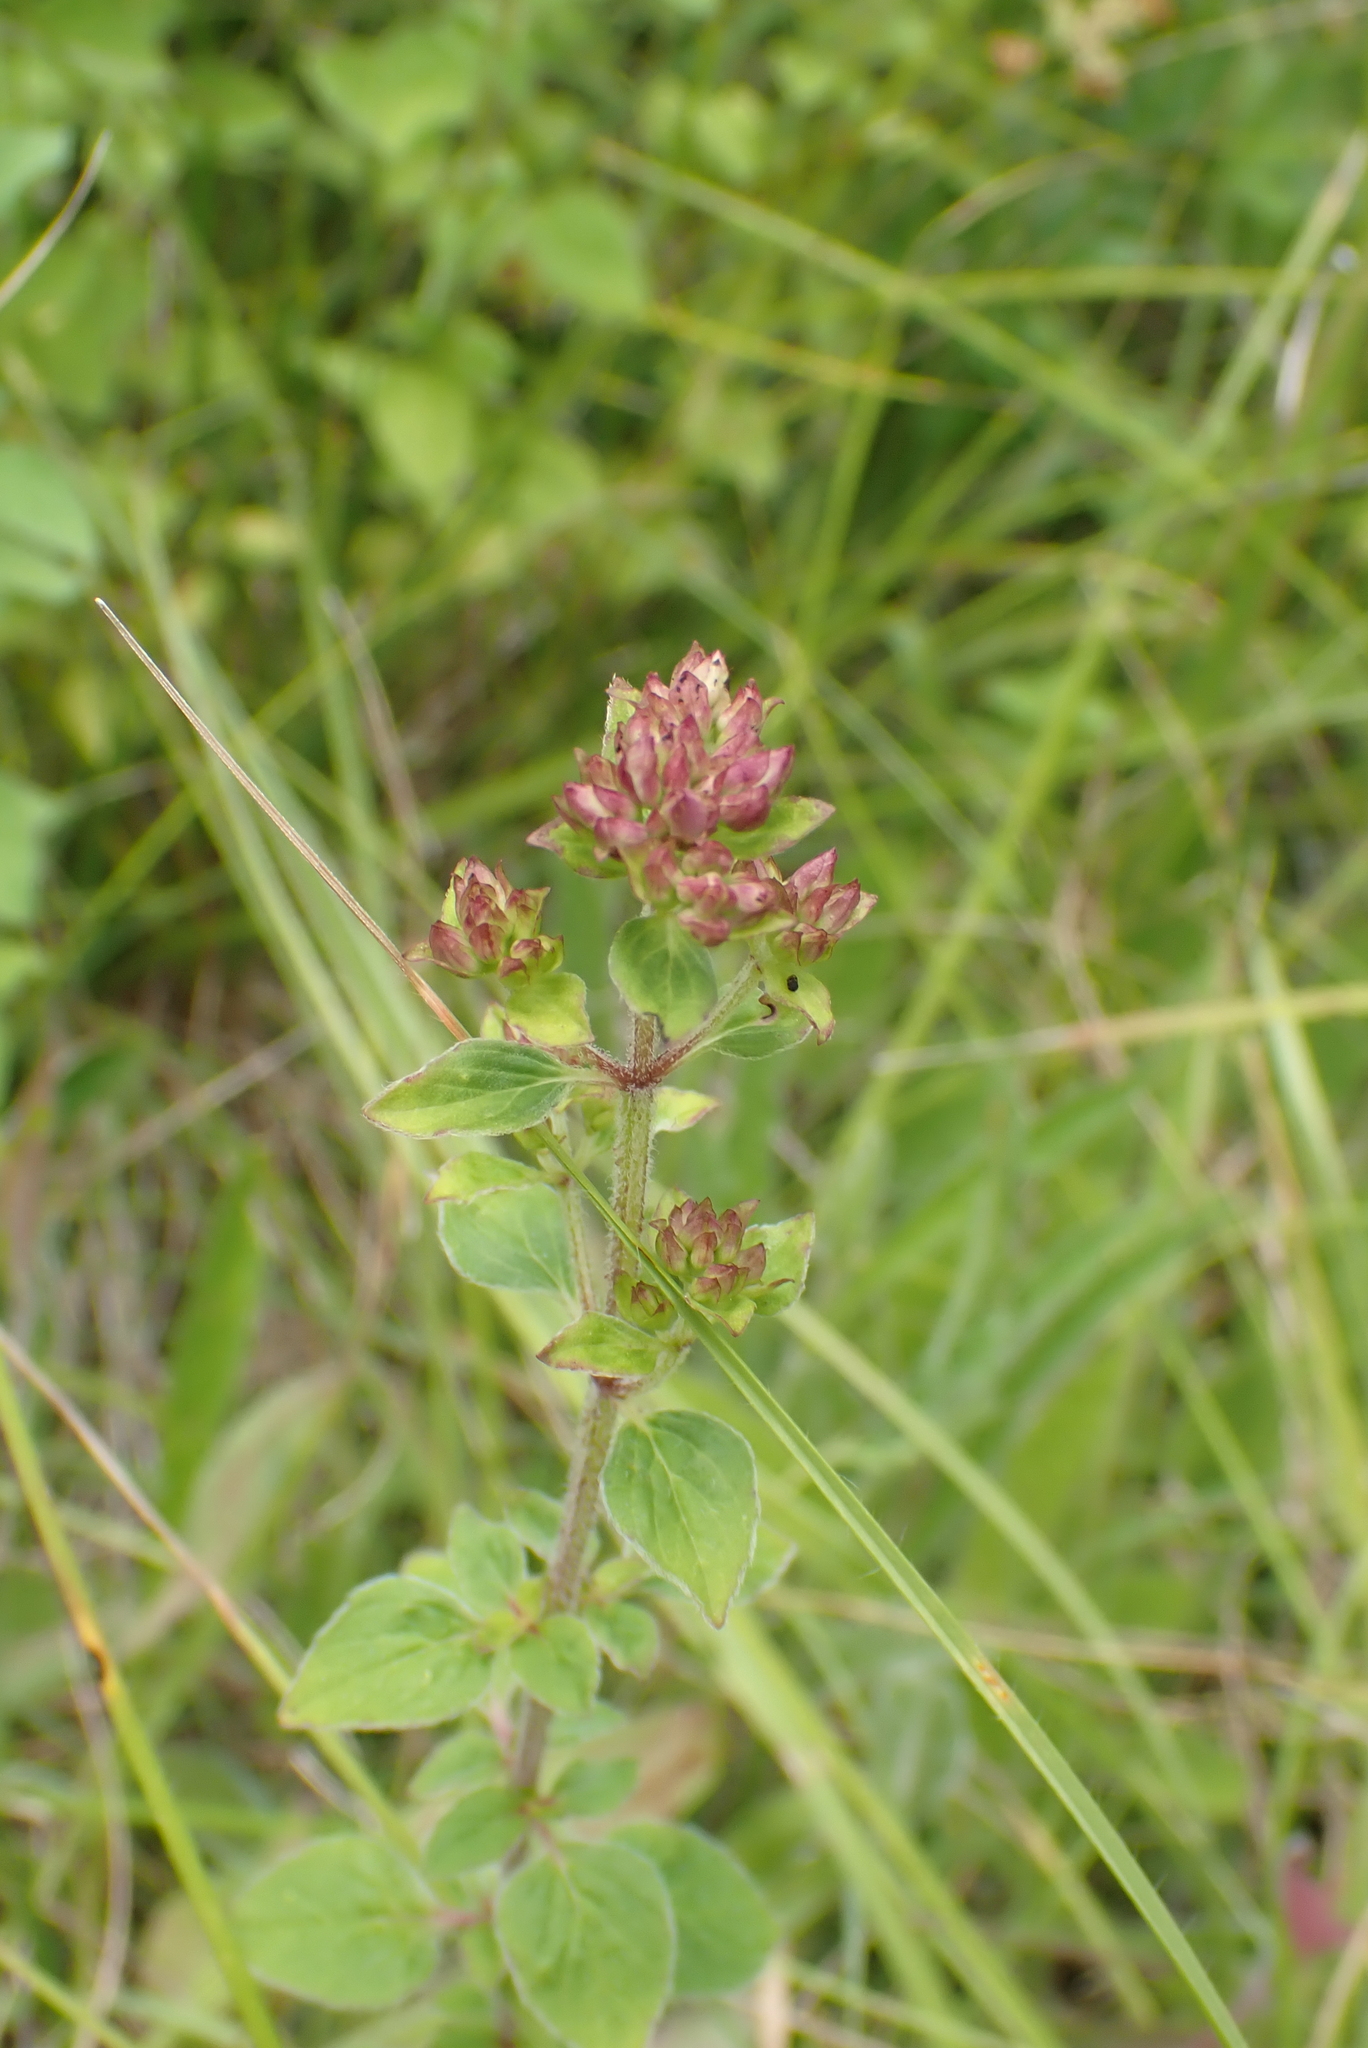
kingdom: Plantae
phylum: Tracheophyta
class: Magnoliopsida
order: Lamiales
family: Lamiaceae
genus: Origanum
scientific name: Origanum vulgare
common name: Wild marjoram
